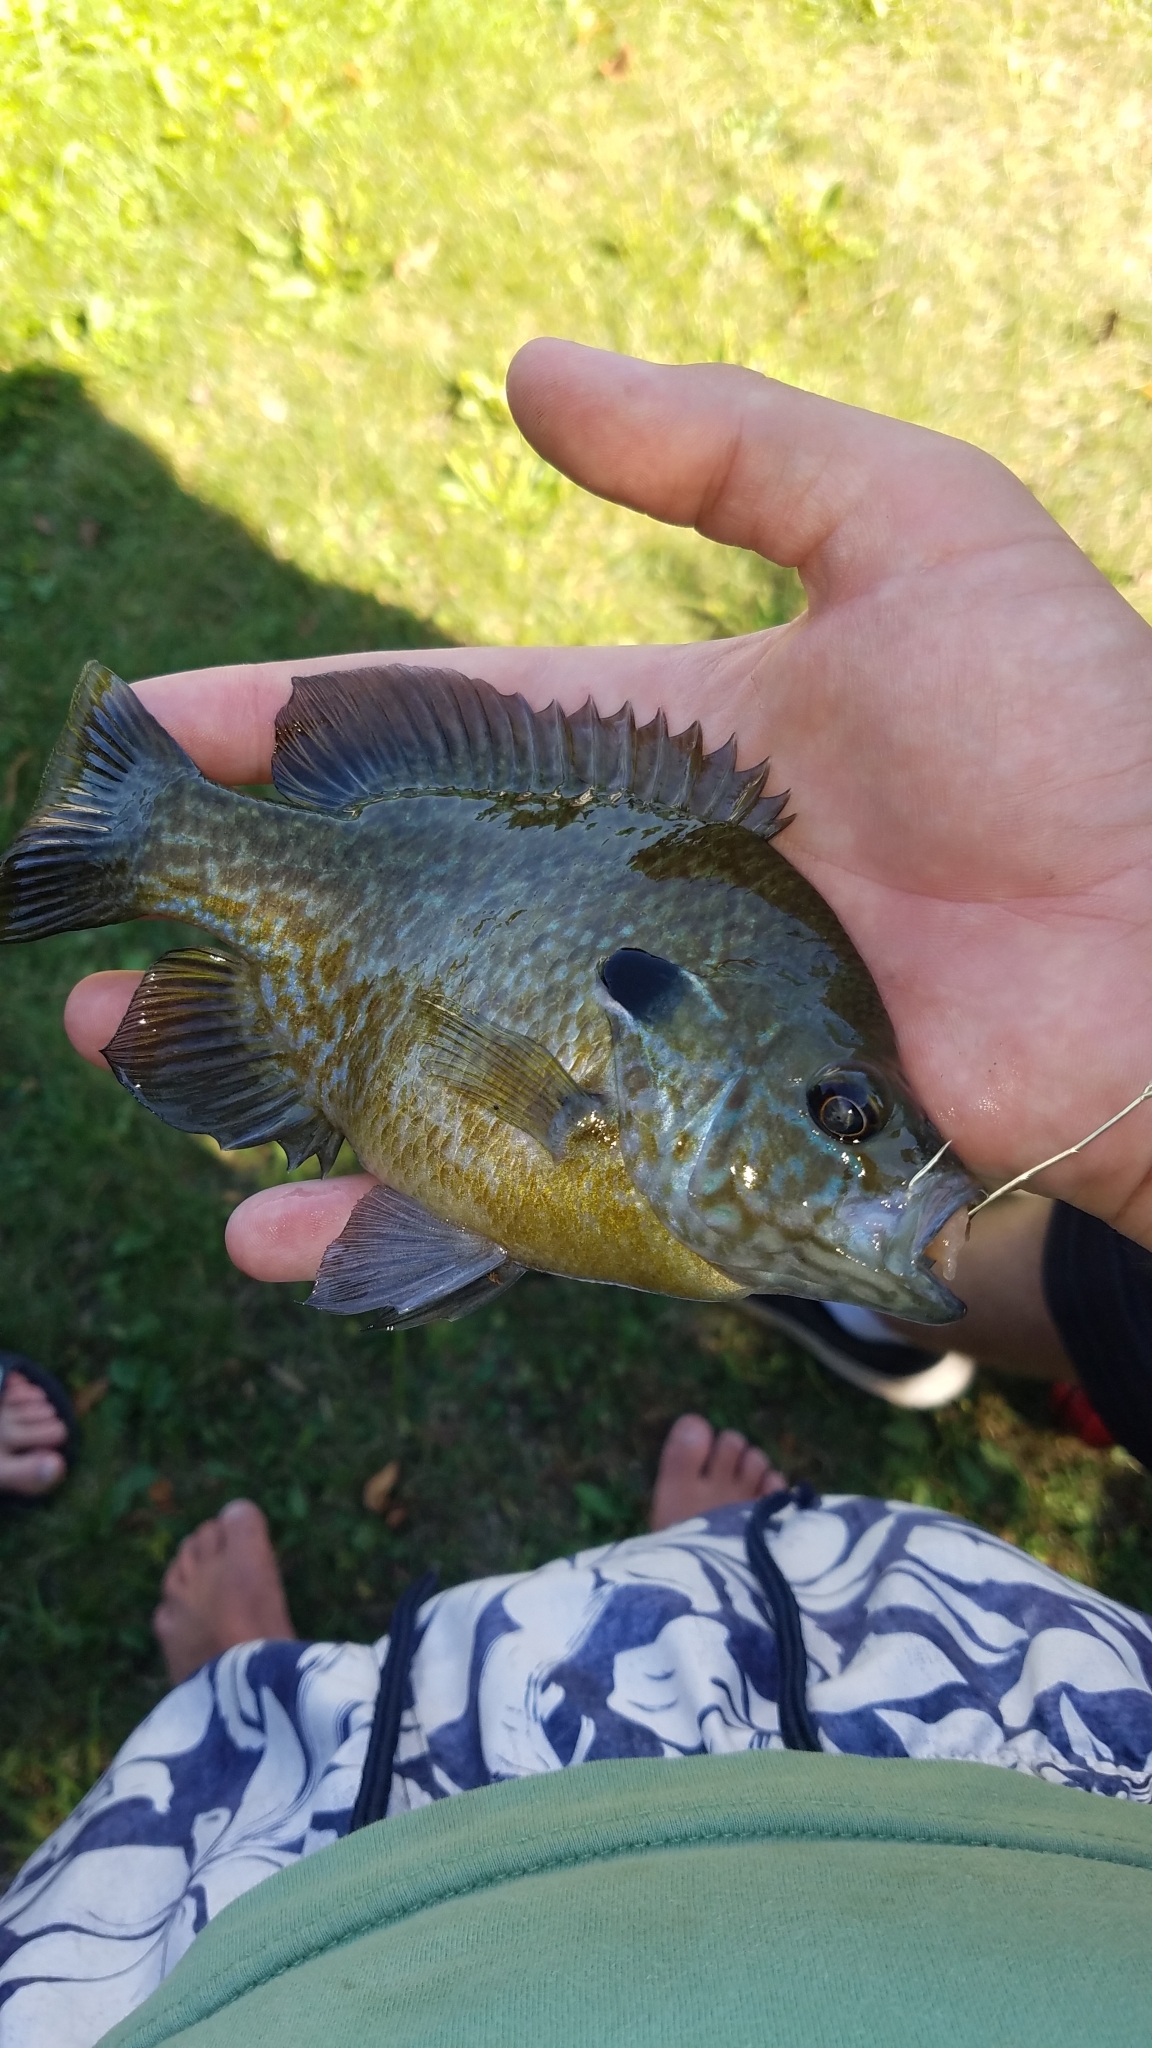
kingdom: Animalia
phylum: Chordata
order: Perciformes
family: Centrarchidae
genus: Lepomis
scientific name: Lepomis
